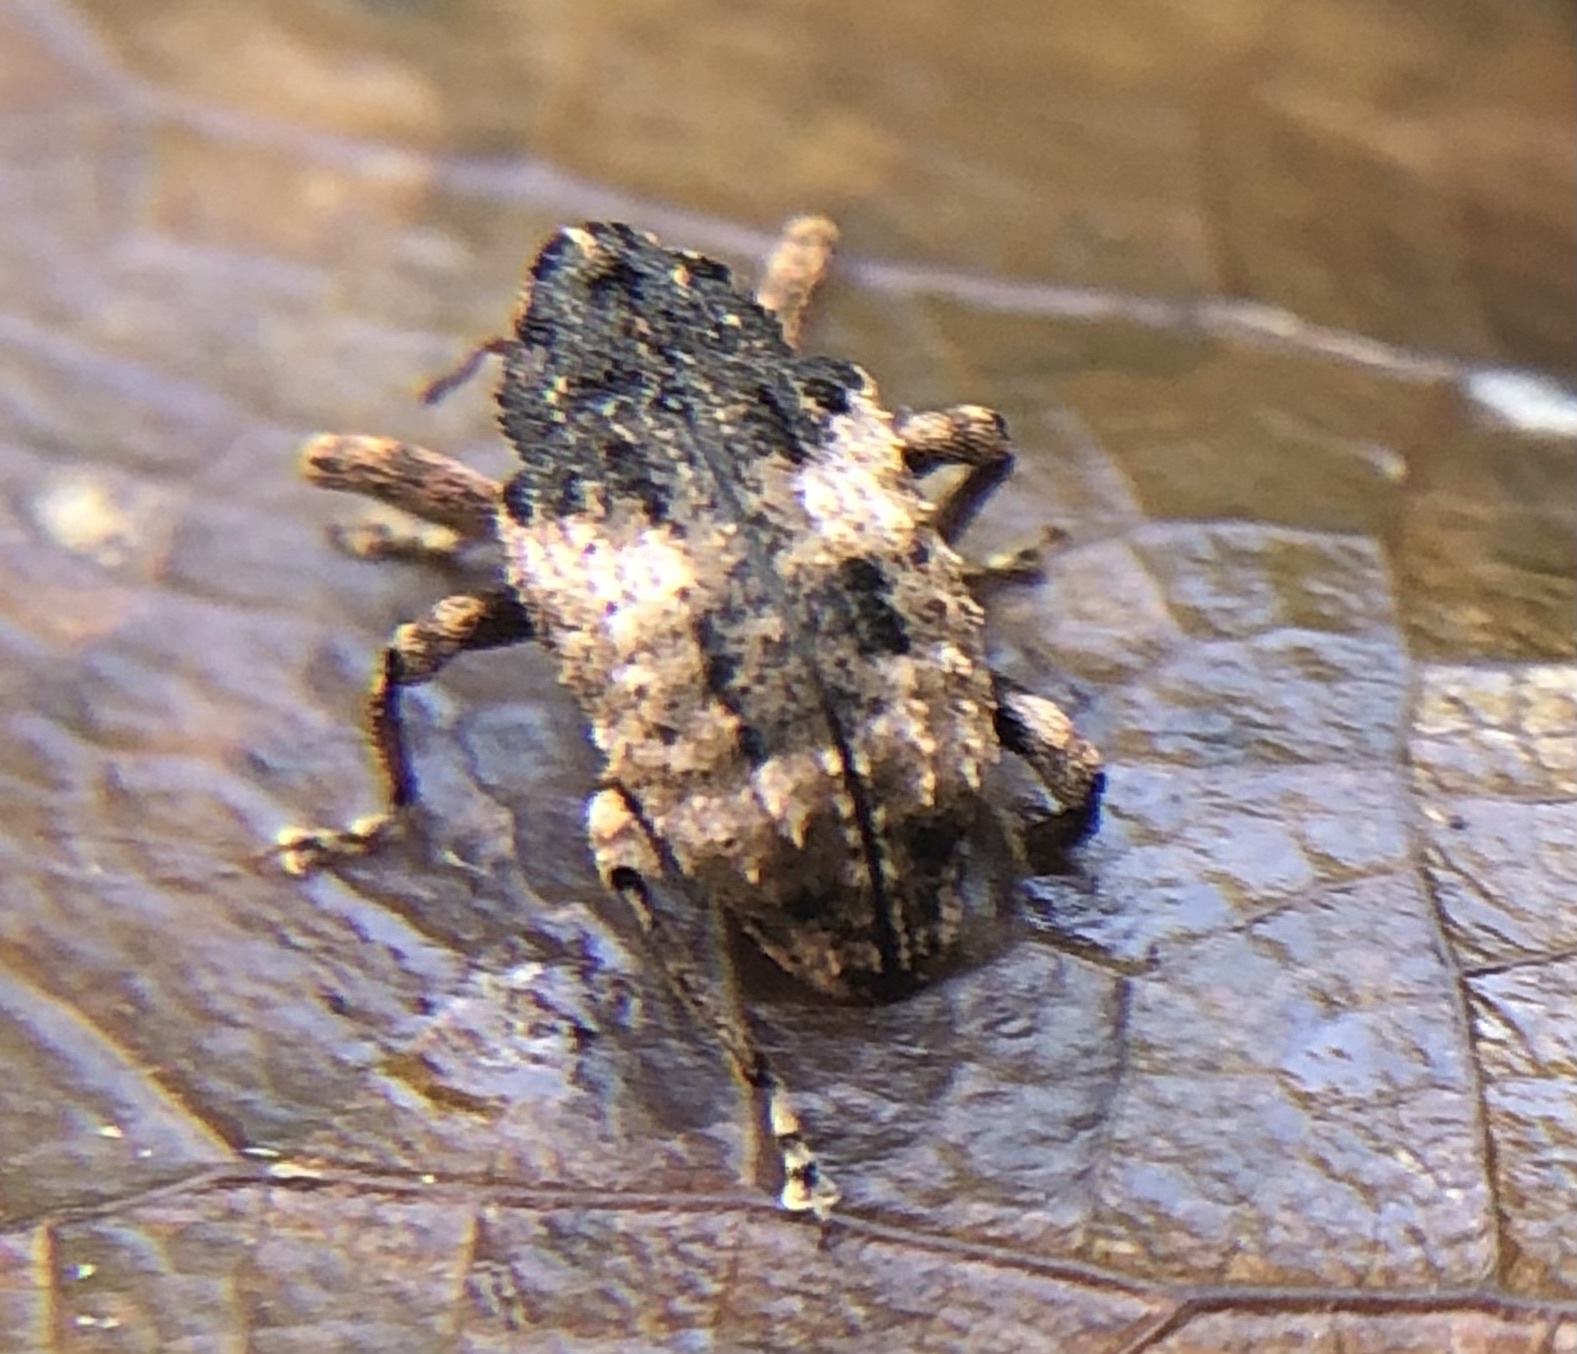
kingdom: Animalia
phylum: Arthropoda
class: Insecta
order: Coleoptera
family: Curculionidae
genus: Cryptorhynchus
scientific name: Cryptorhynchus fuscatus
